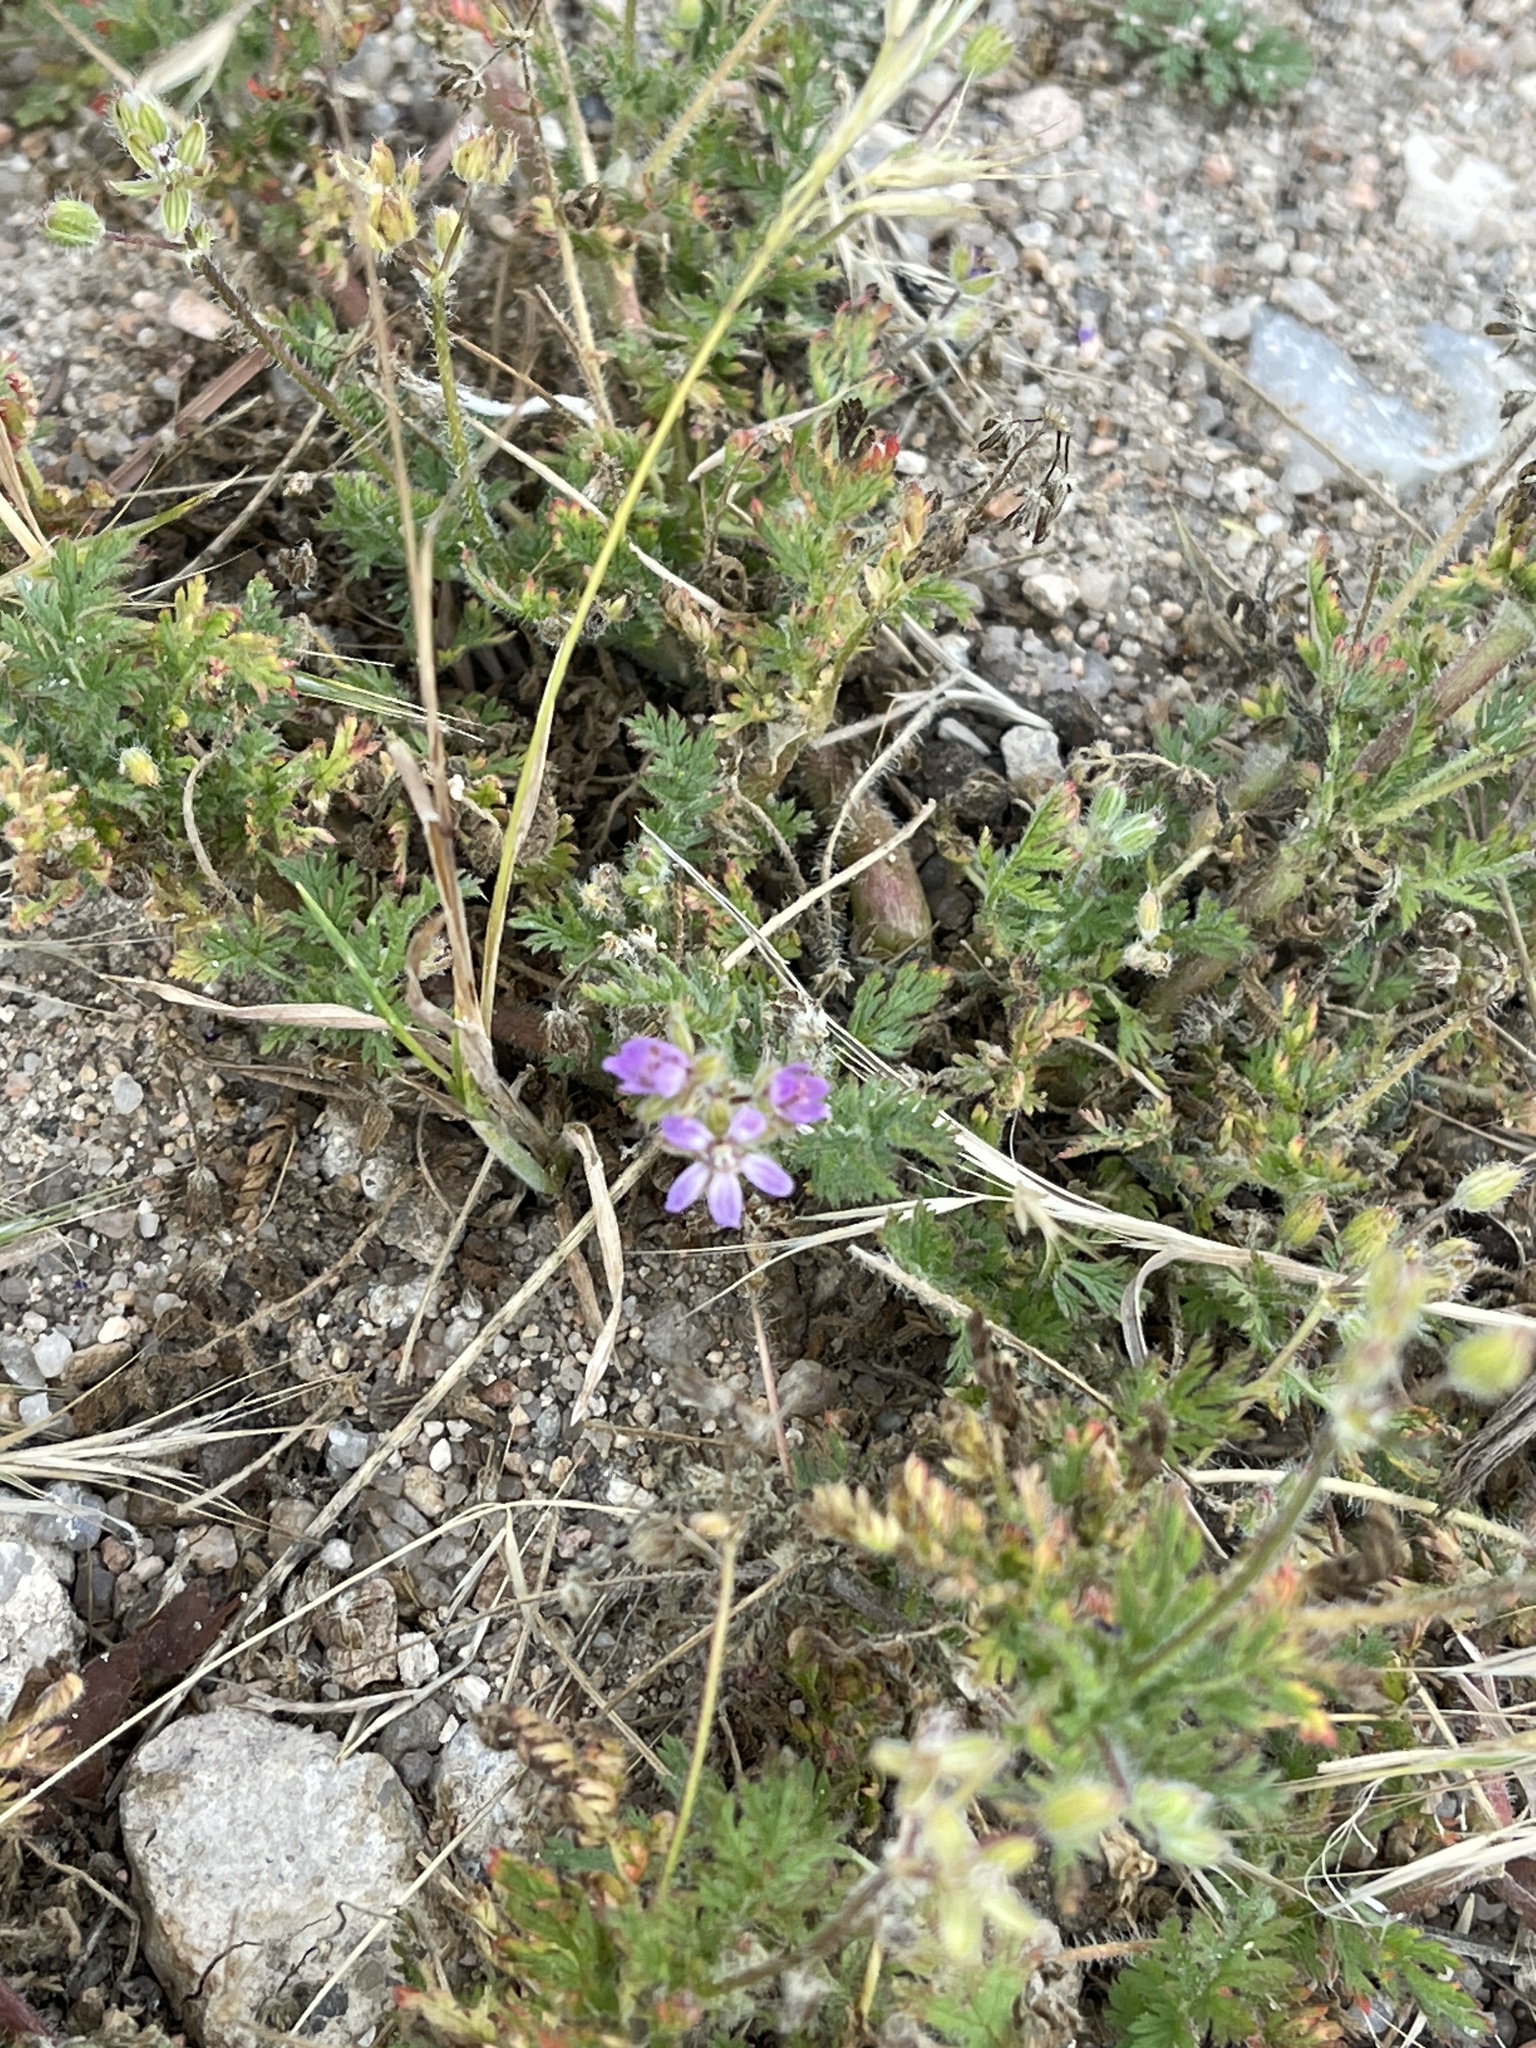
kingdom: Plantae
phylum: Tracheophyta
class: Magnoliopsida
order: Geraniales
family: Geraniaceae
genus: Erodium
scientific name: Erodium cicutarium
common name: Common stork's-bill
